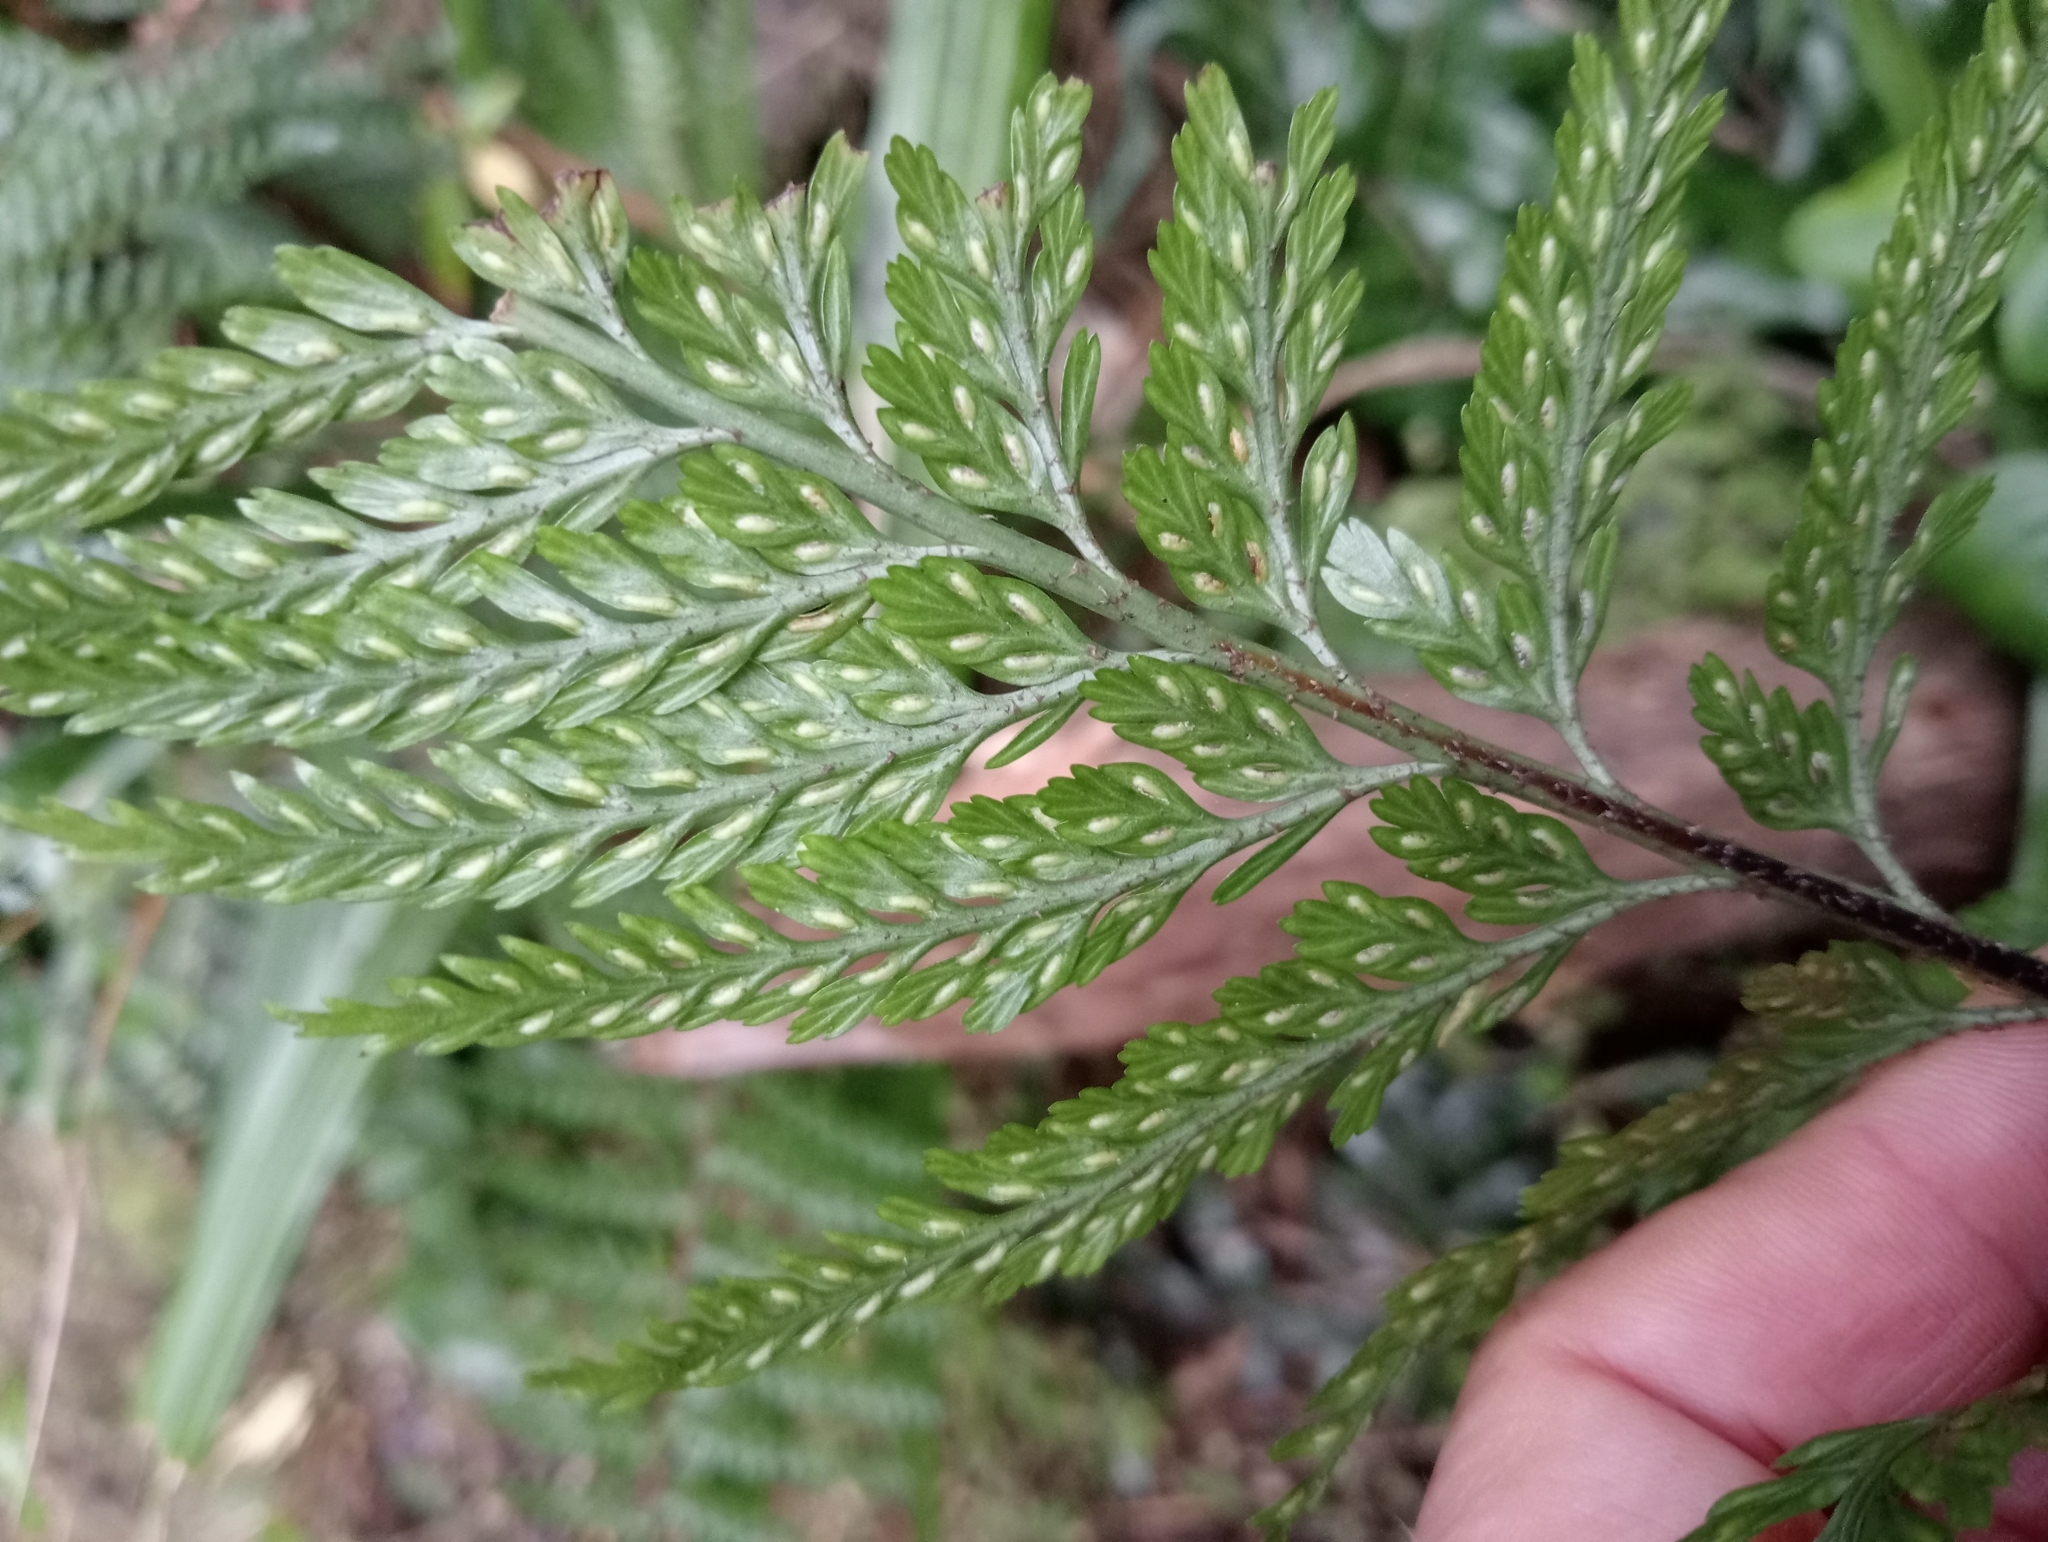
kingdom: Plantae
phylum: Tracheophyta
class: Polypodiopsida
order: Polypodiales
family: Aspleniaceae
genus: Asplenium
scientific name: Asplenium
